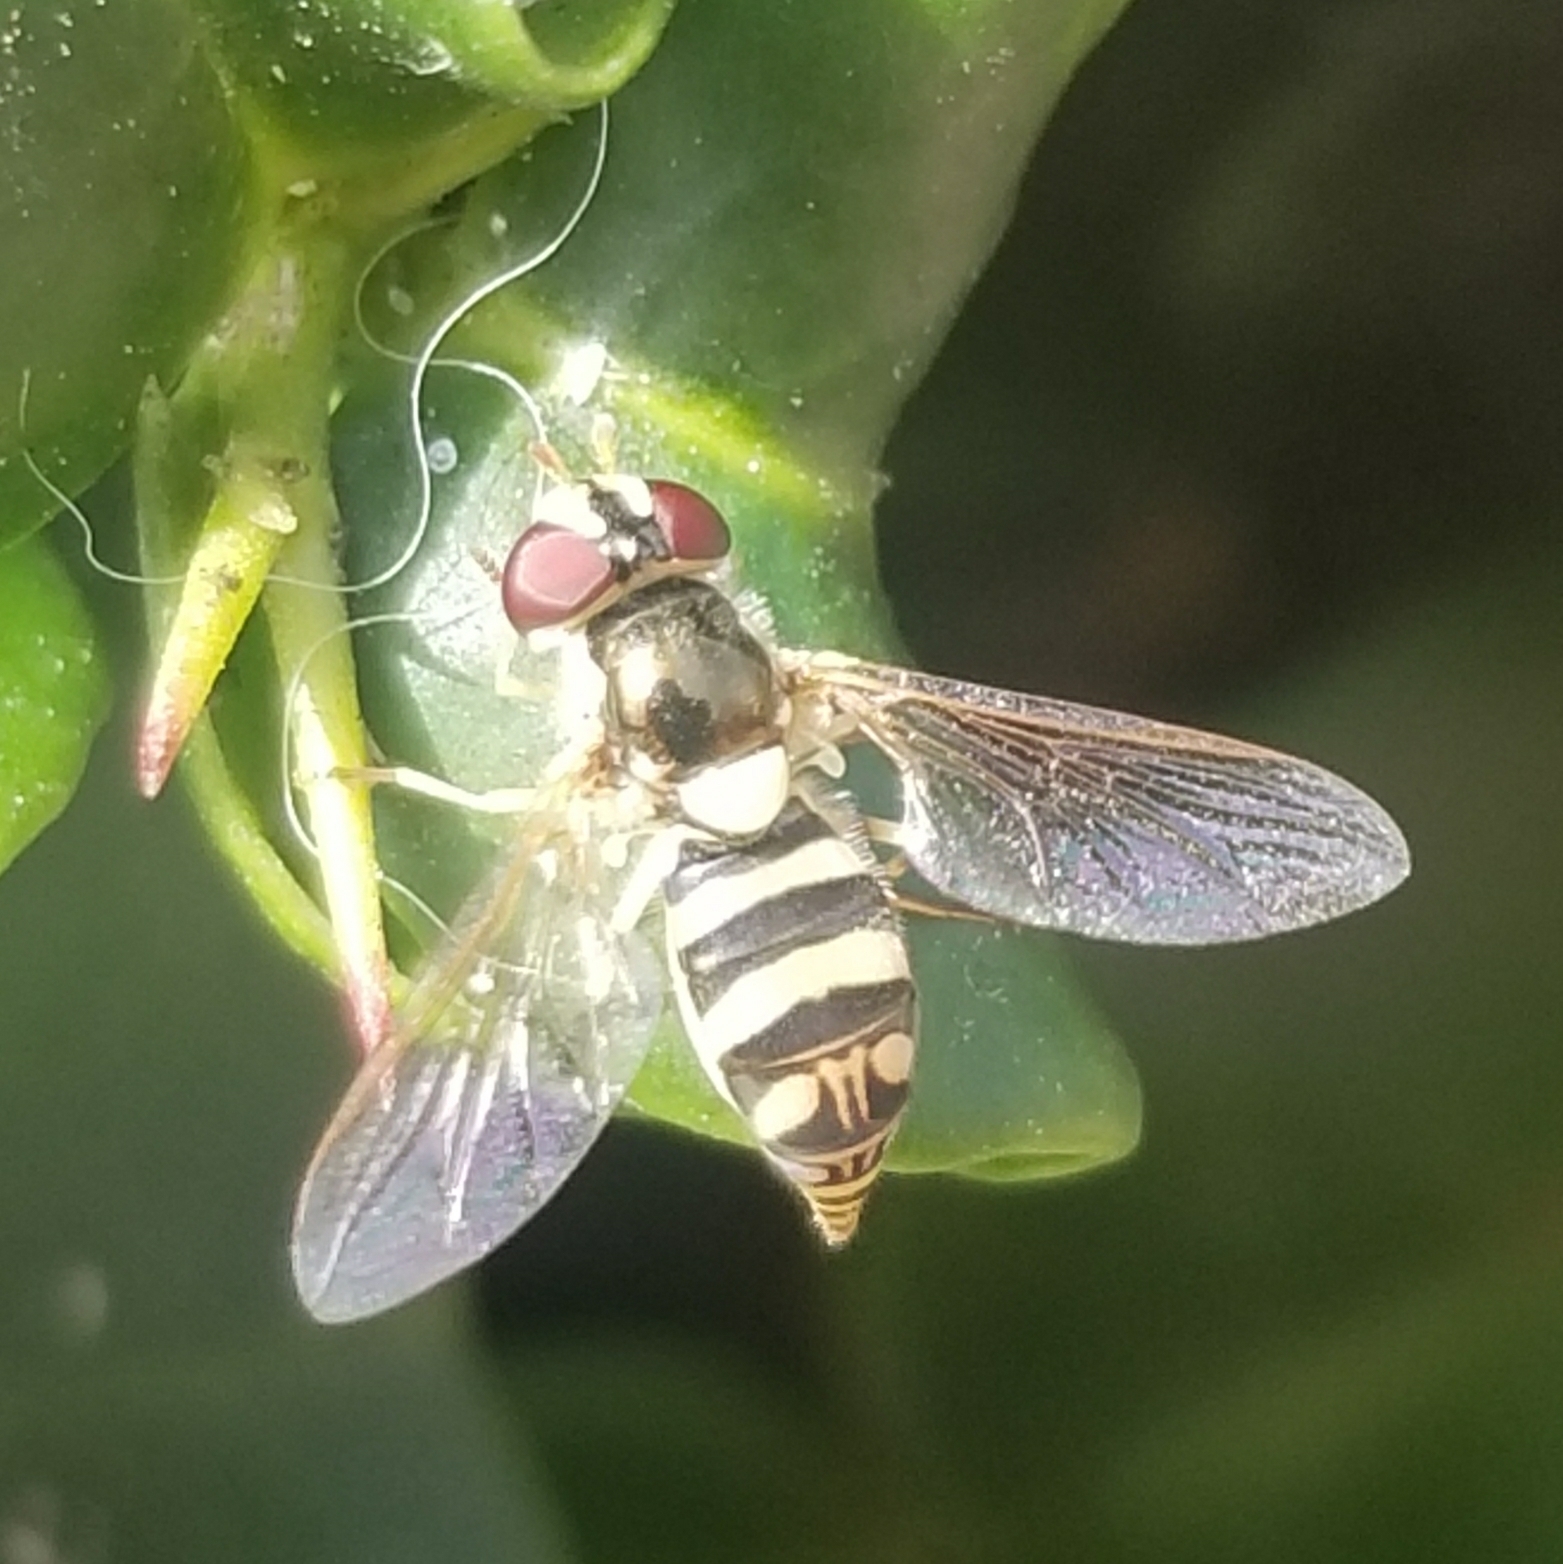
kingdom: Animalia
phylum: Arthropoda
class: Insecta
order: Diptera
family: Syrphidae
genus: Allograpta
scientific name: Allograpta exotica
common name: Syrphid fly
